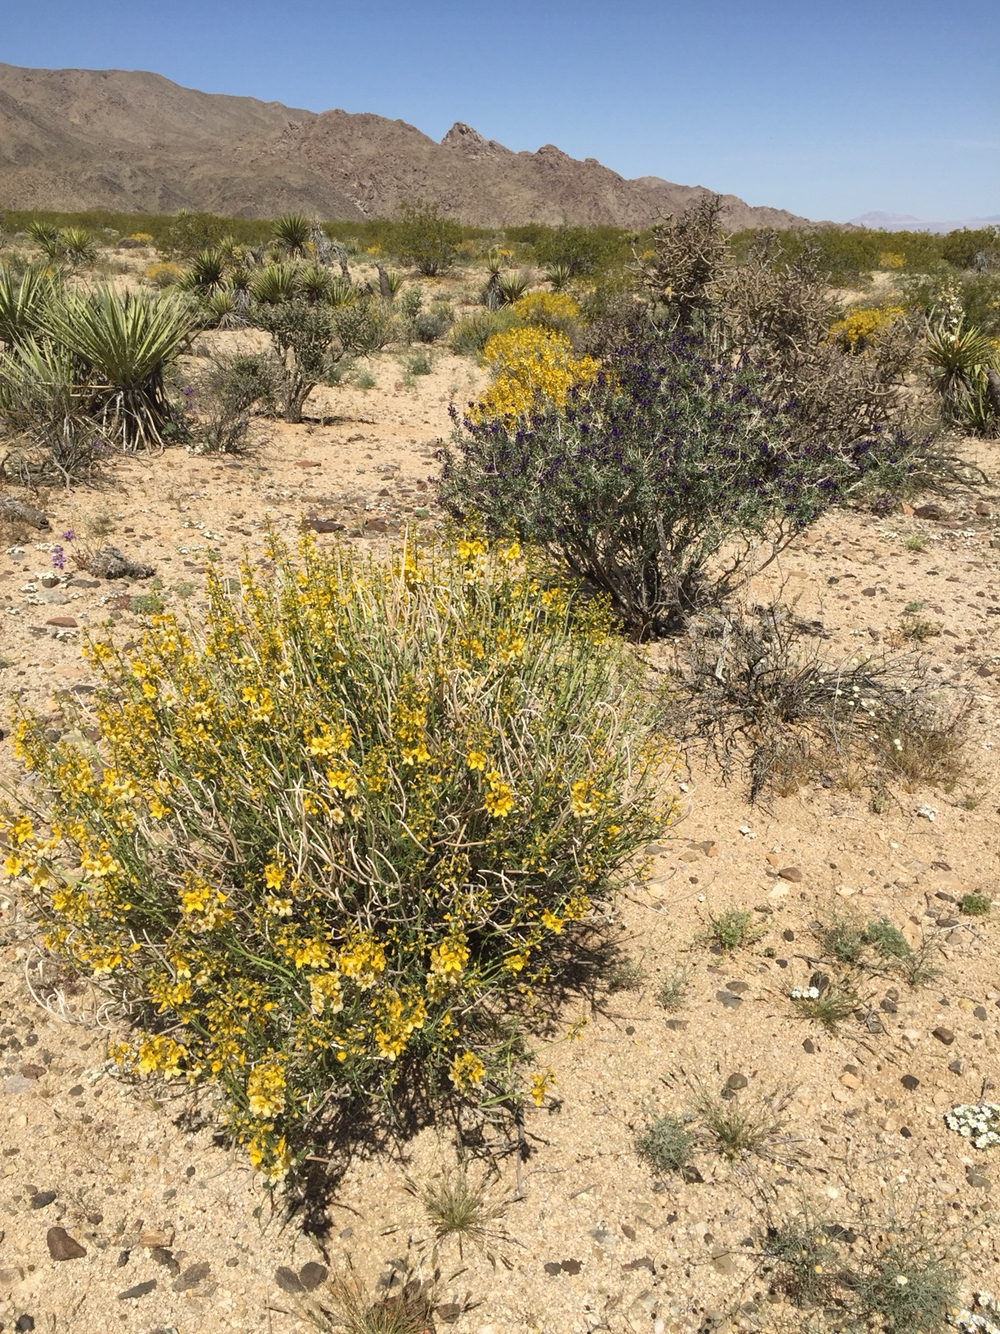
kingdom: Plantae
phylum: Tracheophyta
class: Magnoliopsida
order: Fabales
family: Fabaceae
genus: Senna
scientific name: Senna armata
